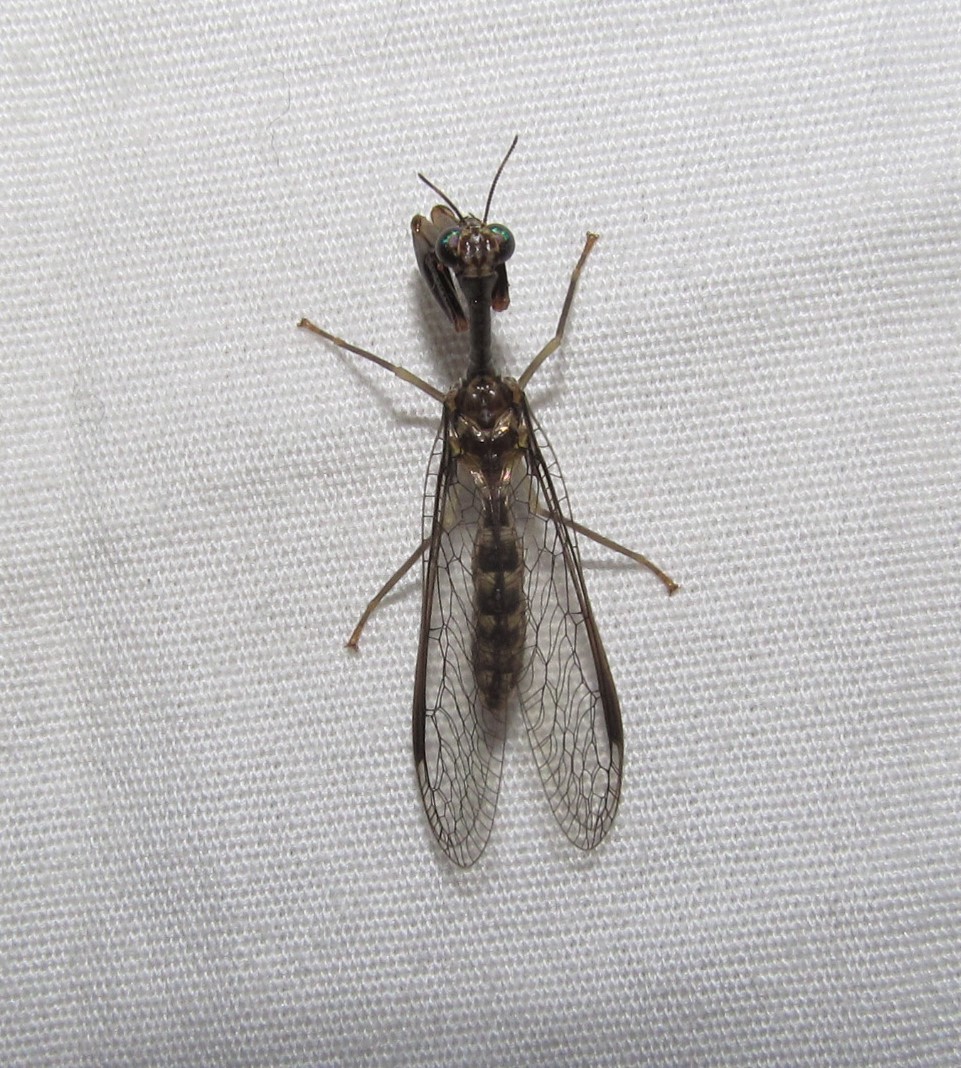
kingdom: Animalia
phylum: Arthropoda
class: Insecta
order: Neuroptera
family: Mantispidae
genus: Dicromantispa
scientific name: Dicromantispa sayi
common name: Say's mantidfly
